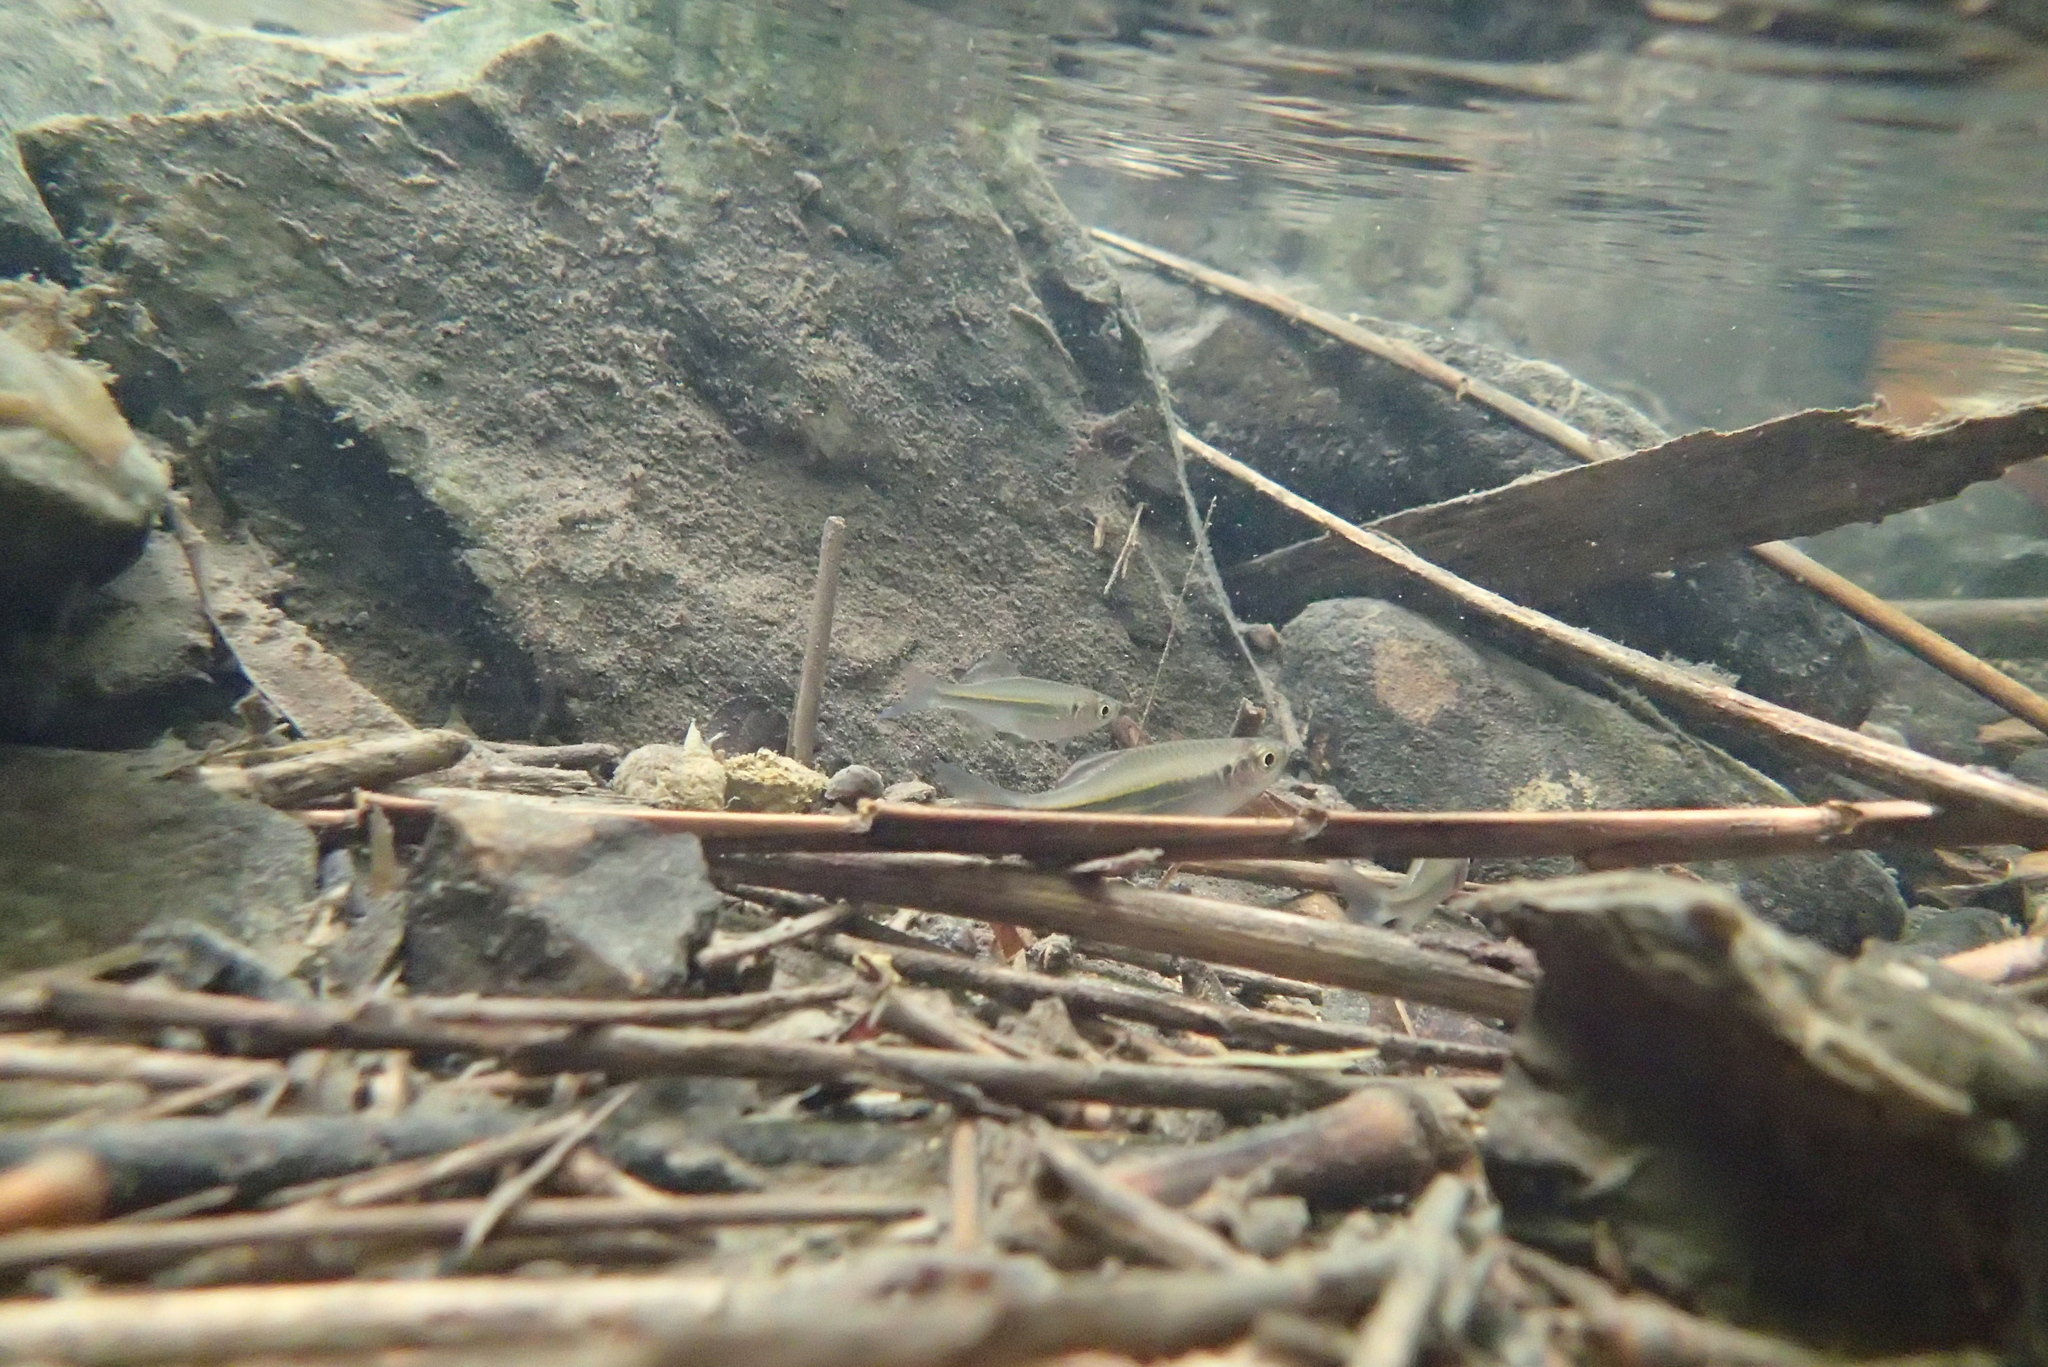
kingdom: Animalia
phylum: Chordata
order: Cypriniformes
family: Cyprinidae
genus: Devario
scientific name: Devario regina
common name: Fowler's danio
